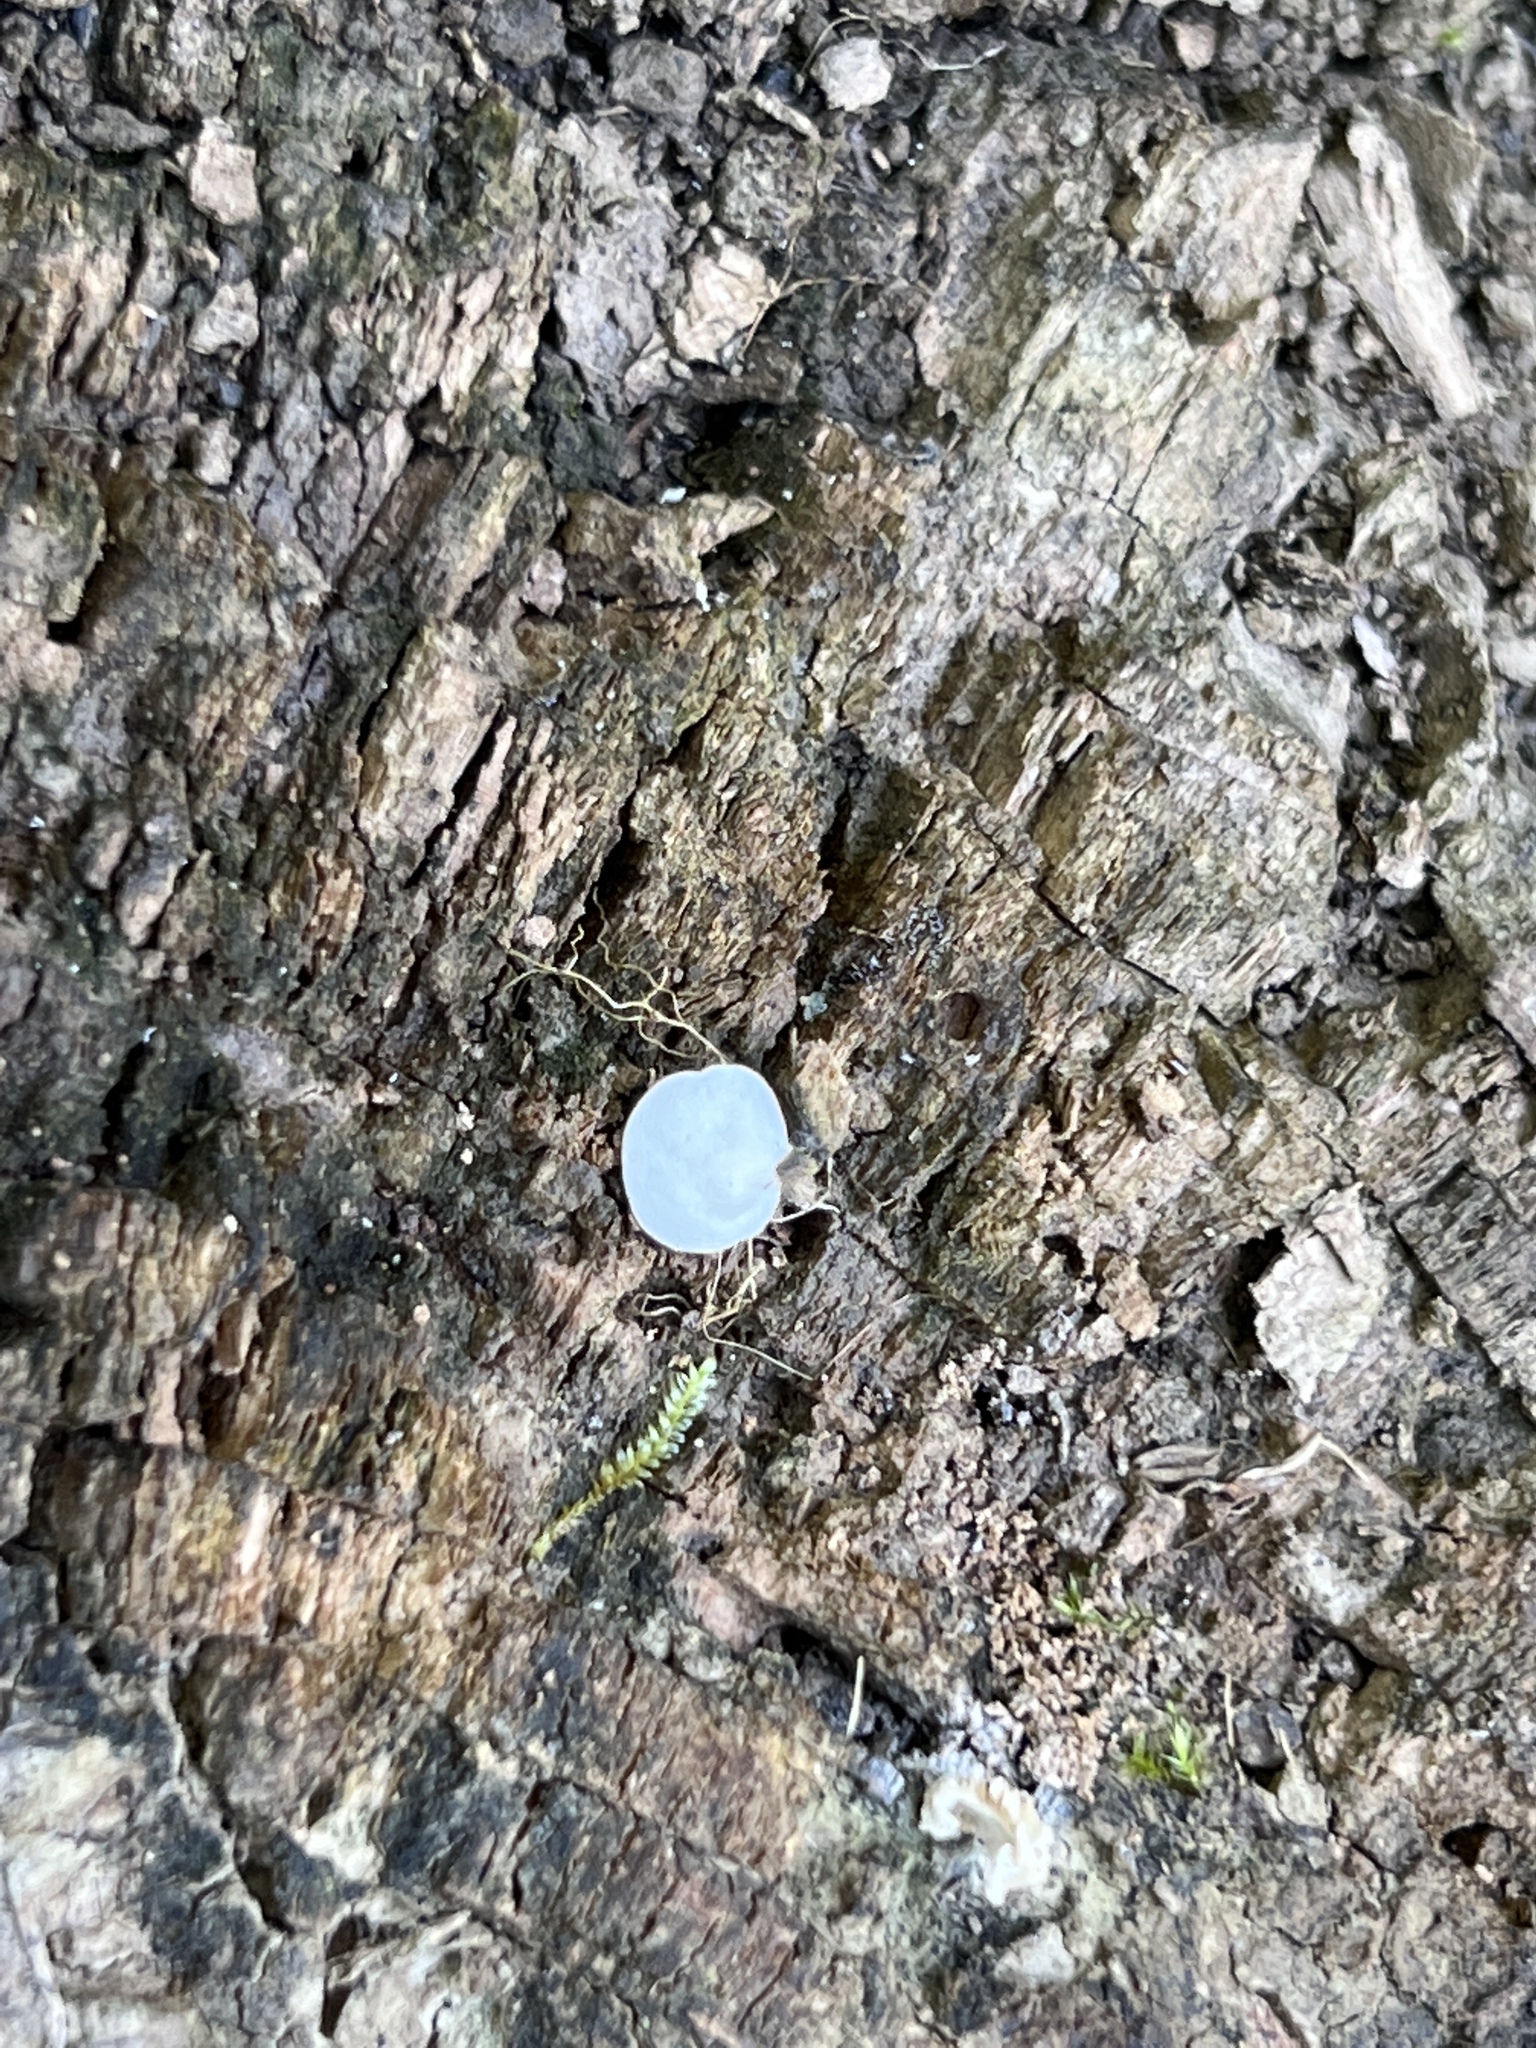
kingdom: Fungi
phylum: Basidiomycota
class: Agaricomycetes
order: Agaricales
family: Entolomataceae
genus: Clitopilus
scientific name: Clitopilus scyphoides
